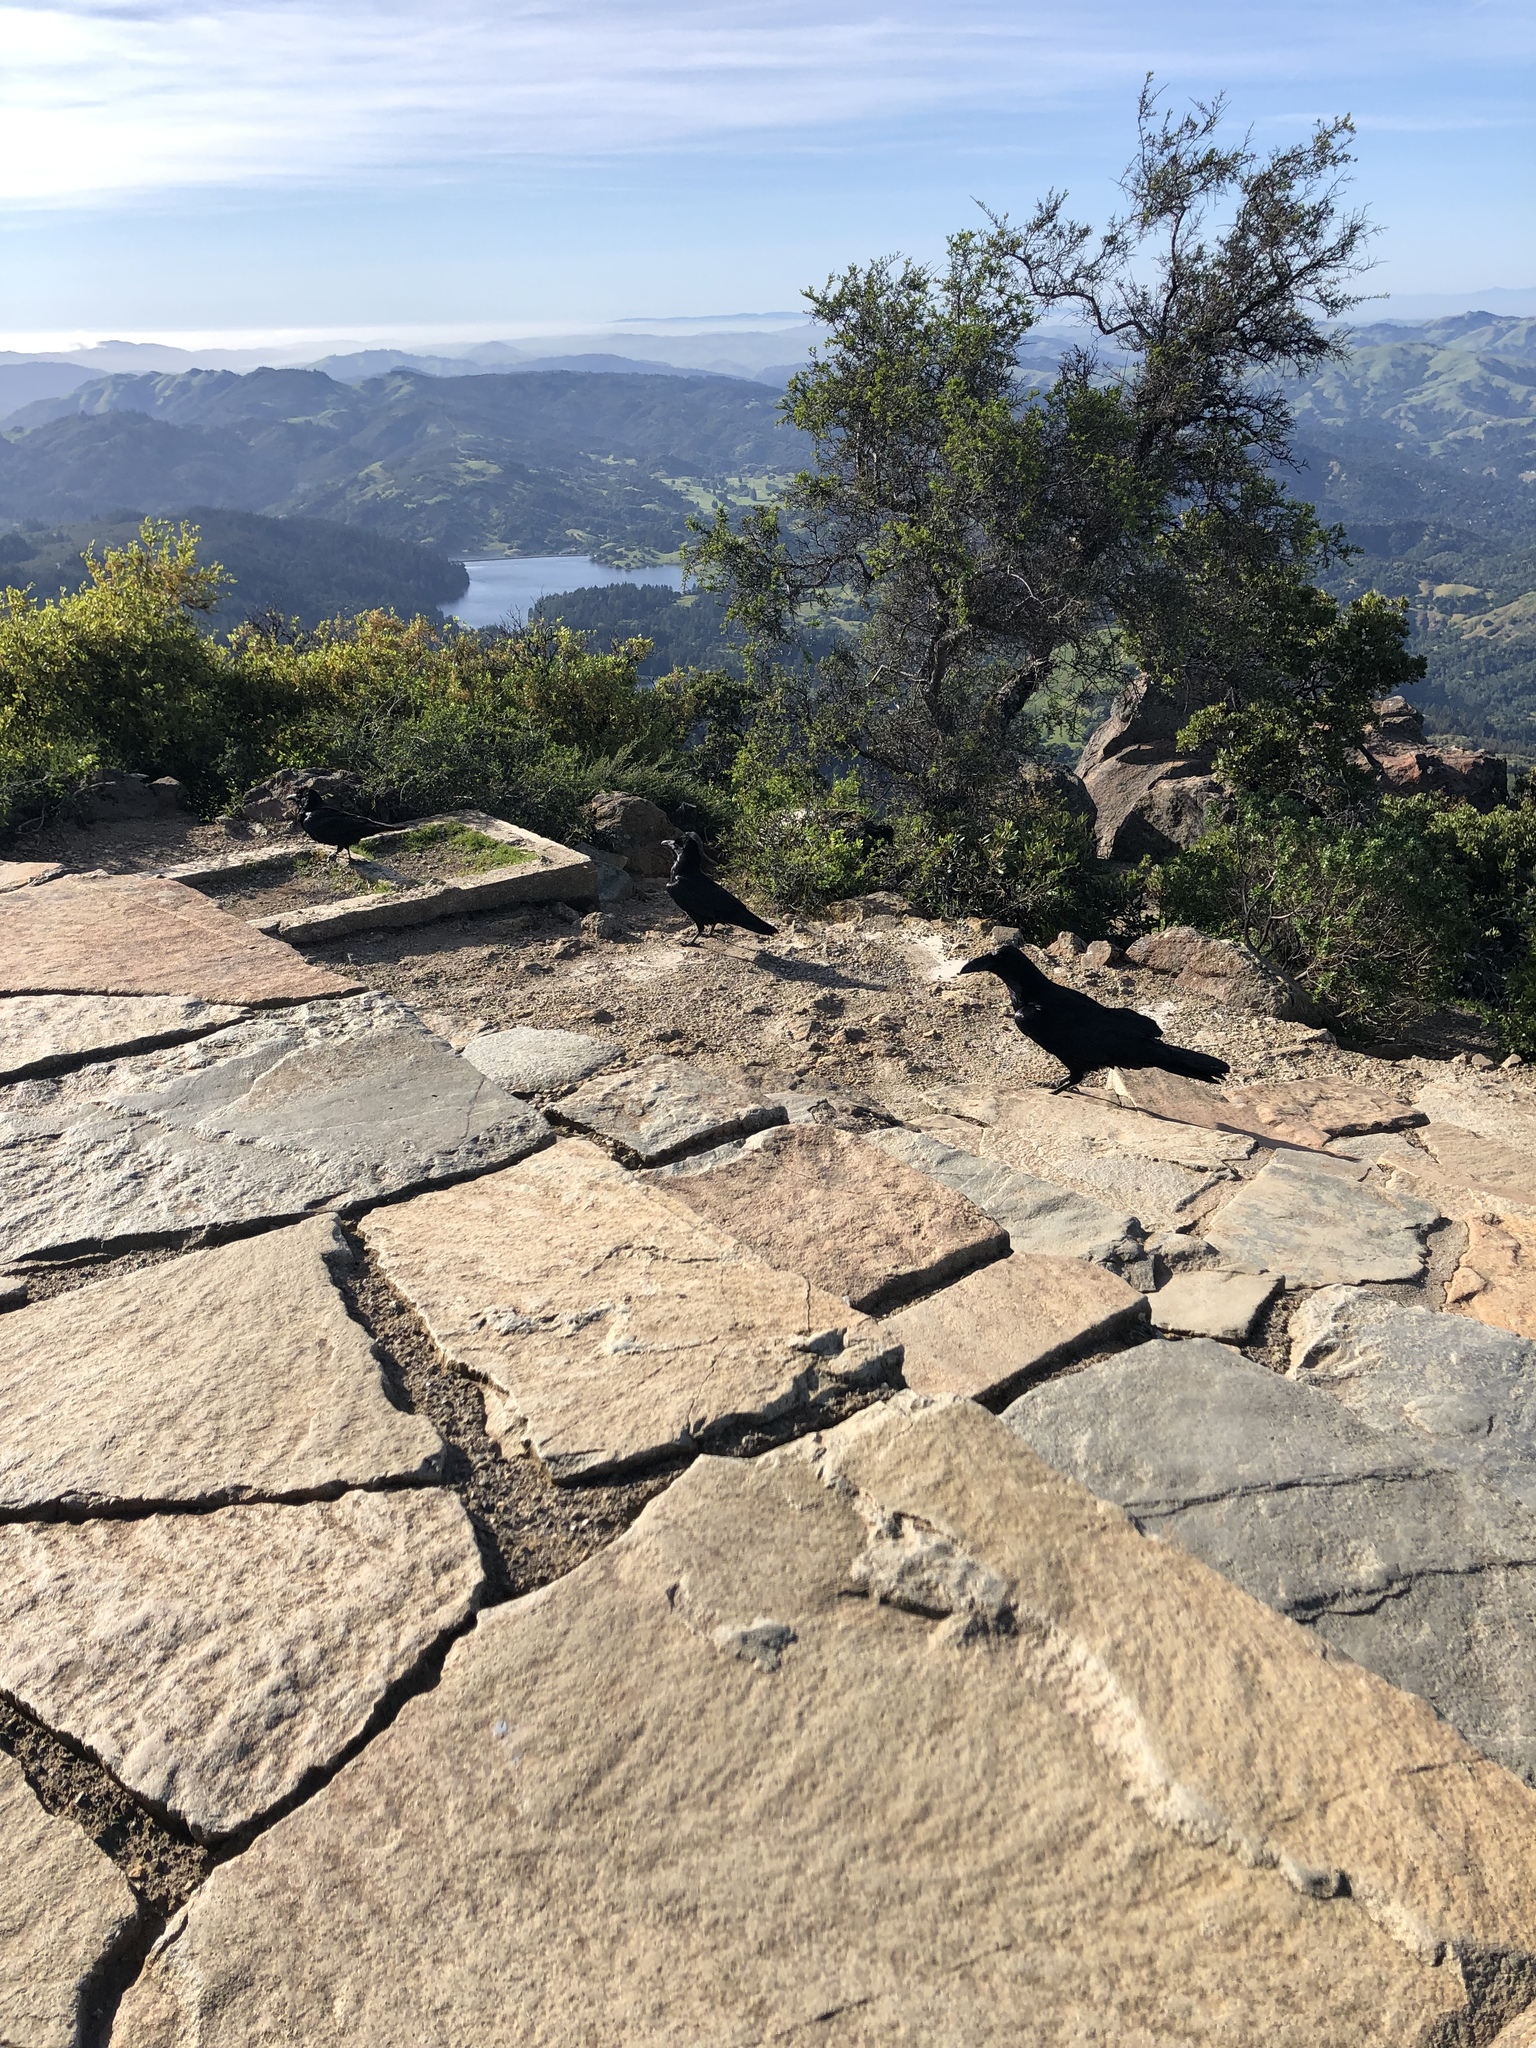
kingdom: Animalia
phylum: Chordata
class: Aves
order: Passeriformes
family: Corvidae
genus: Corvus
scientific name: Corvus corax
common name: Common raven
